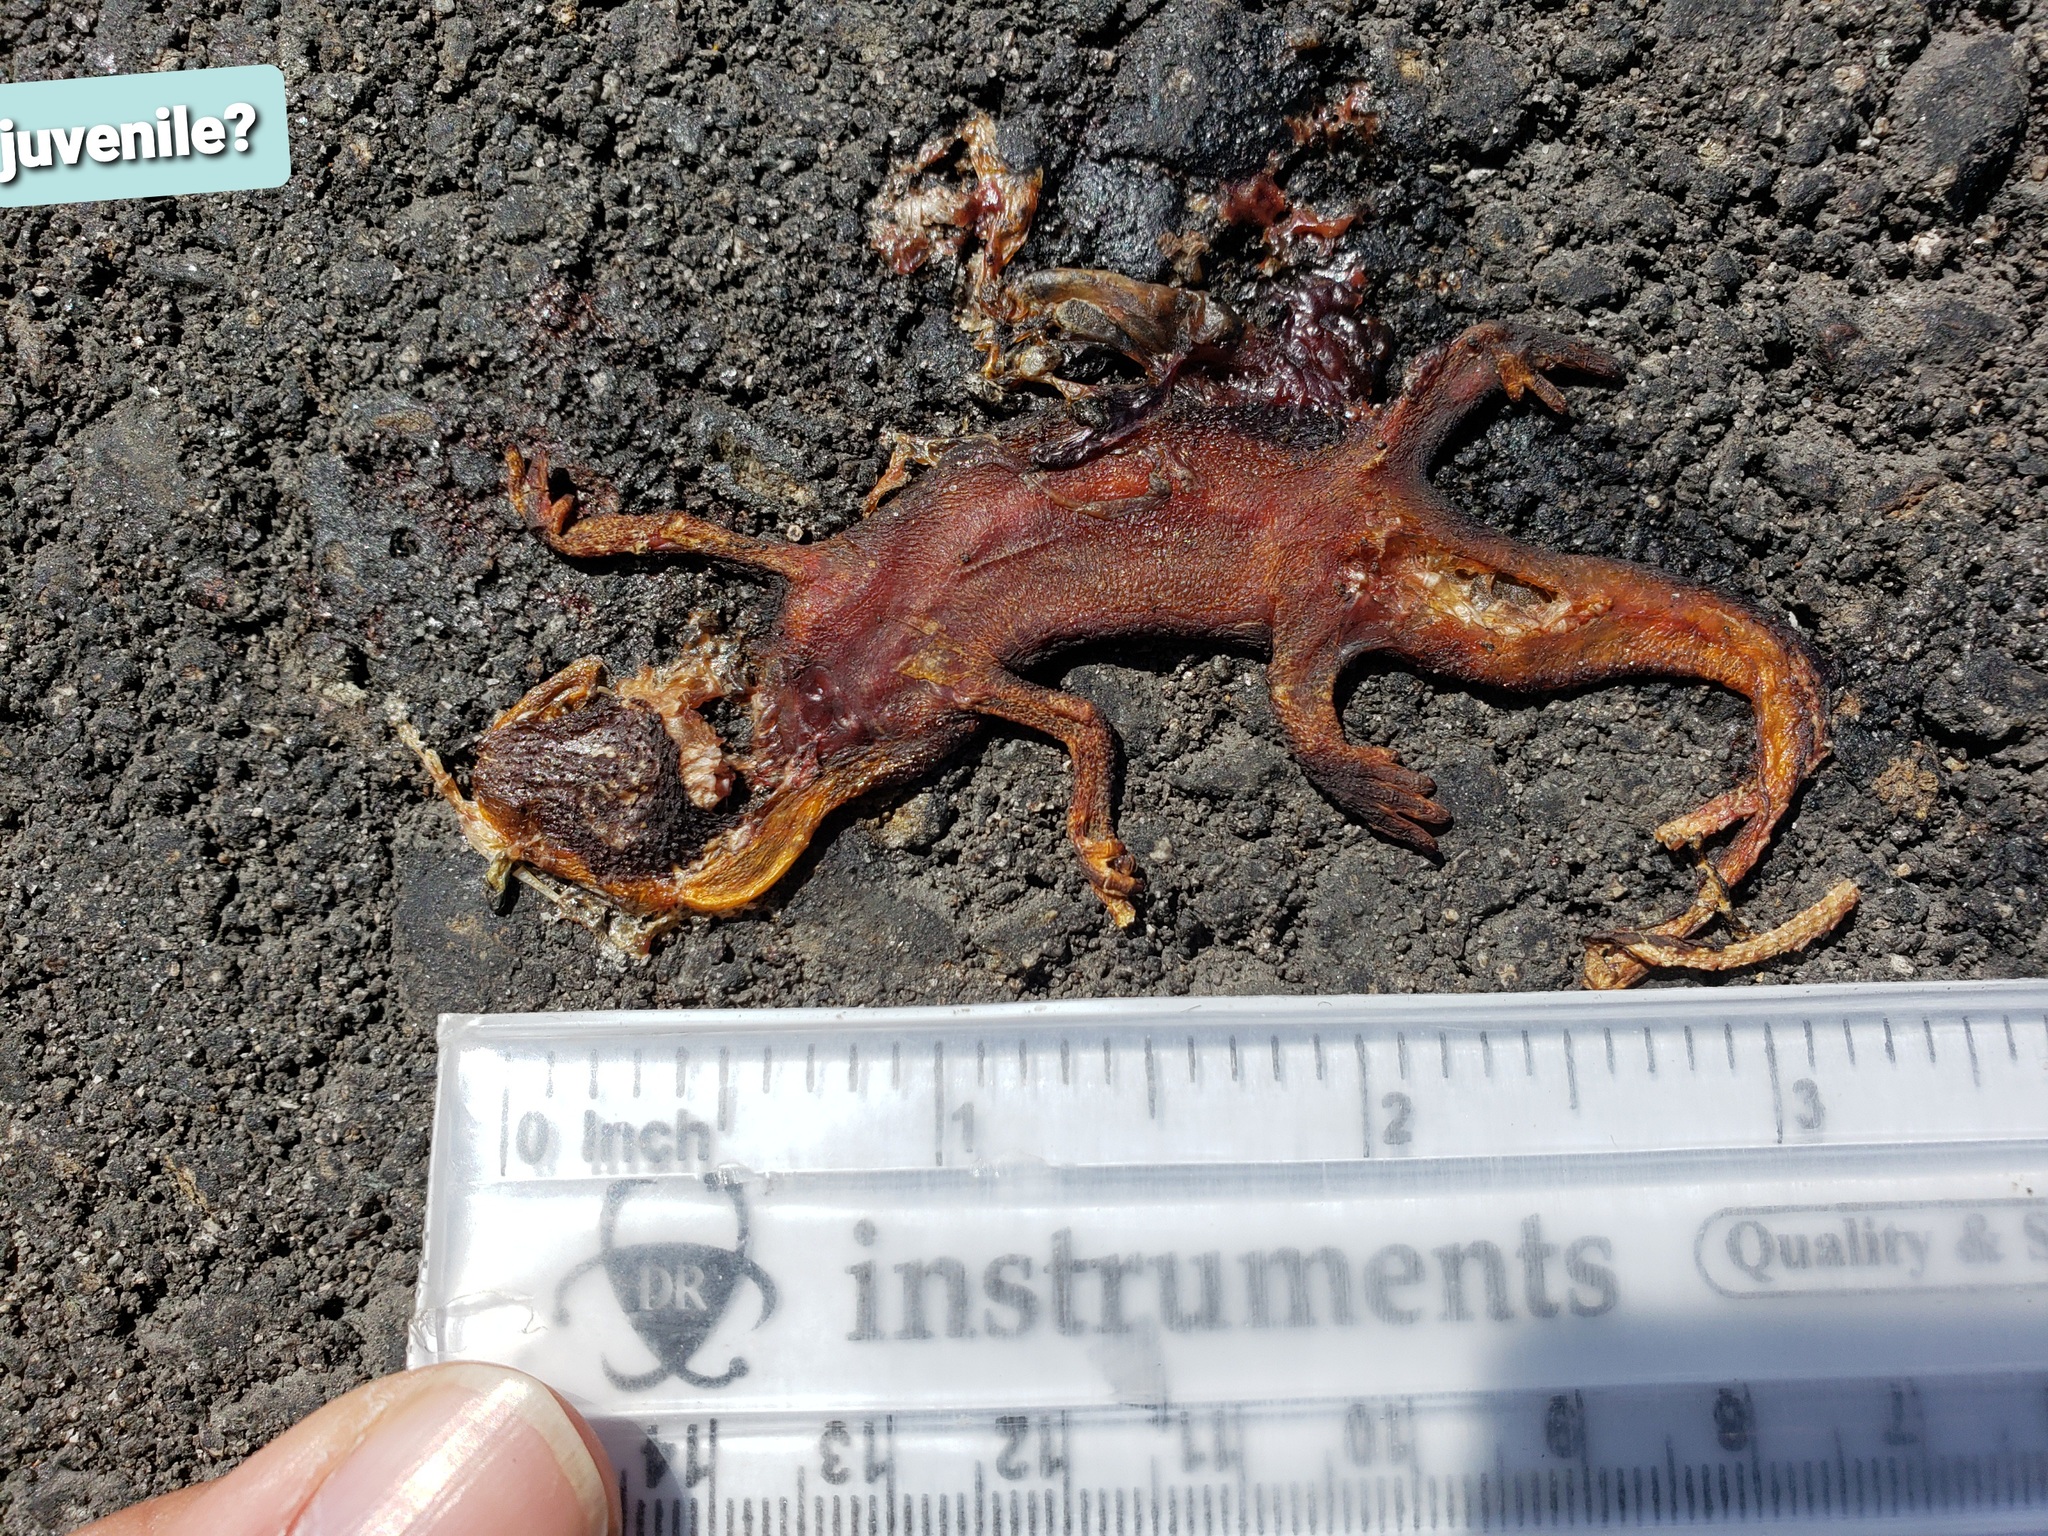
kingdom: Animalia
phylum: Chordata
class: Amphibia
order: Caudata
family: Salamandridae
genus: Taricha
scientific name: Taricha
